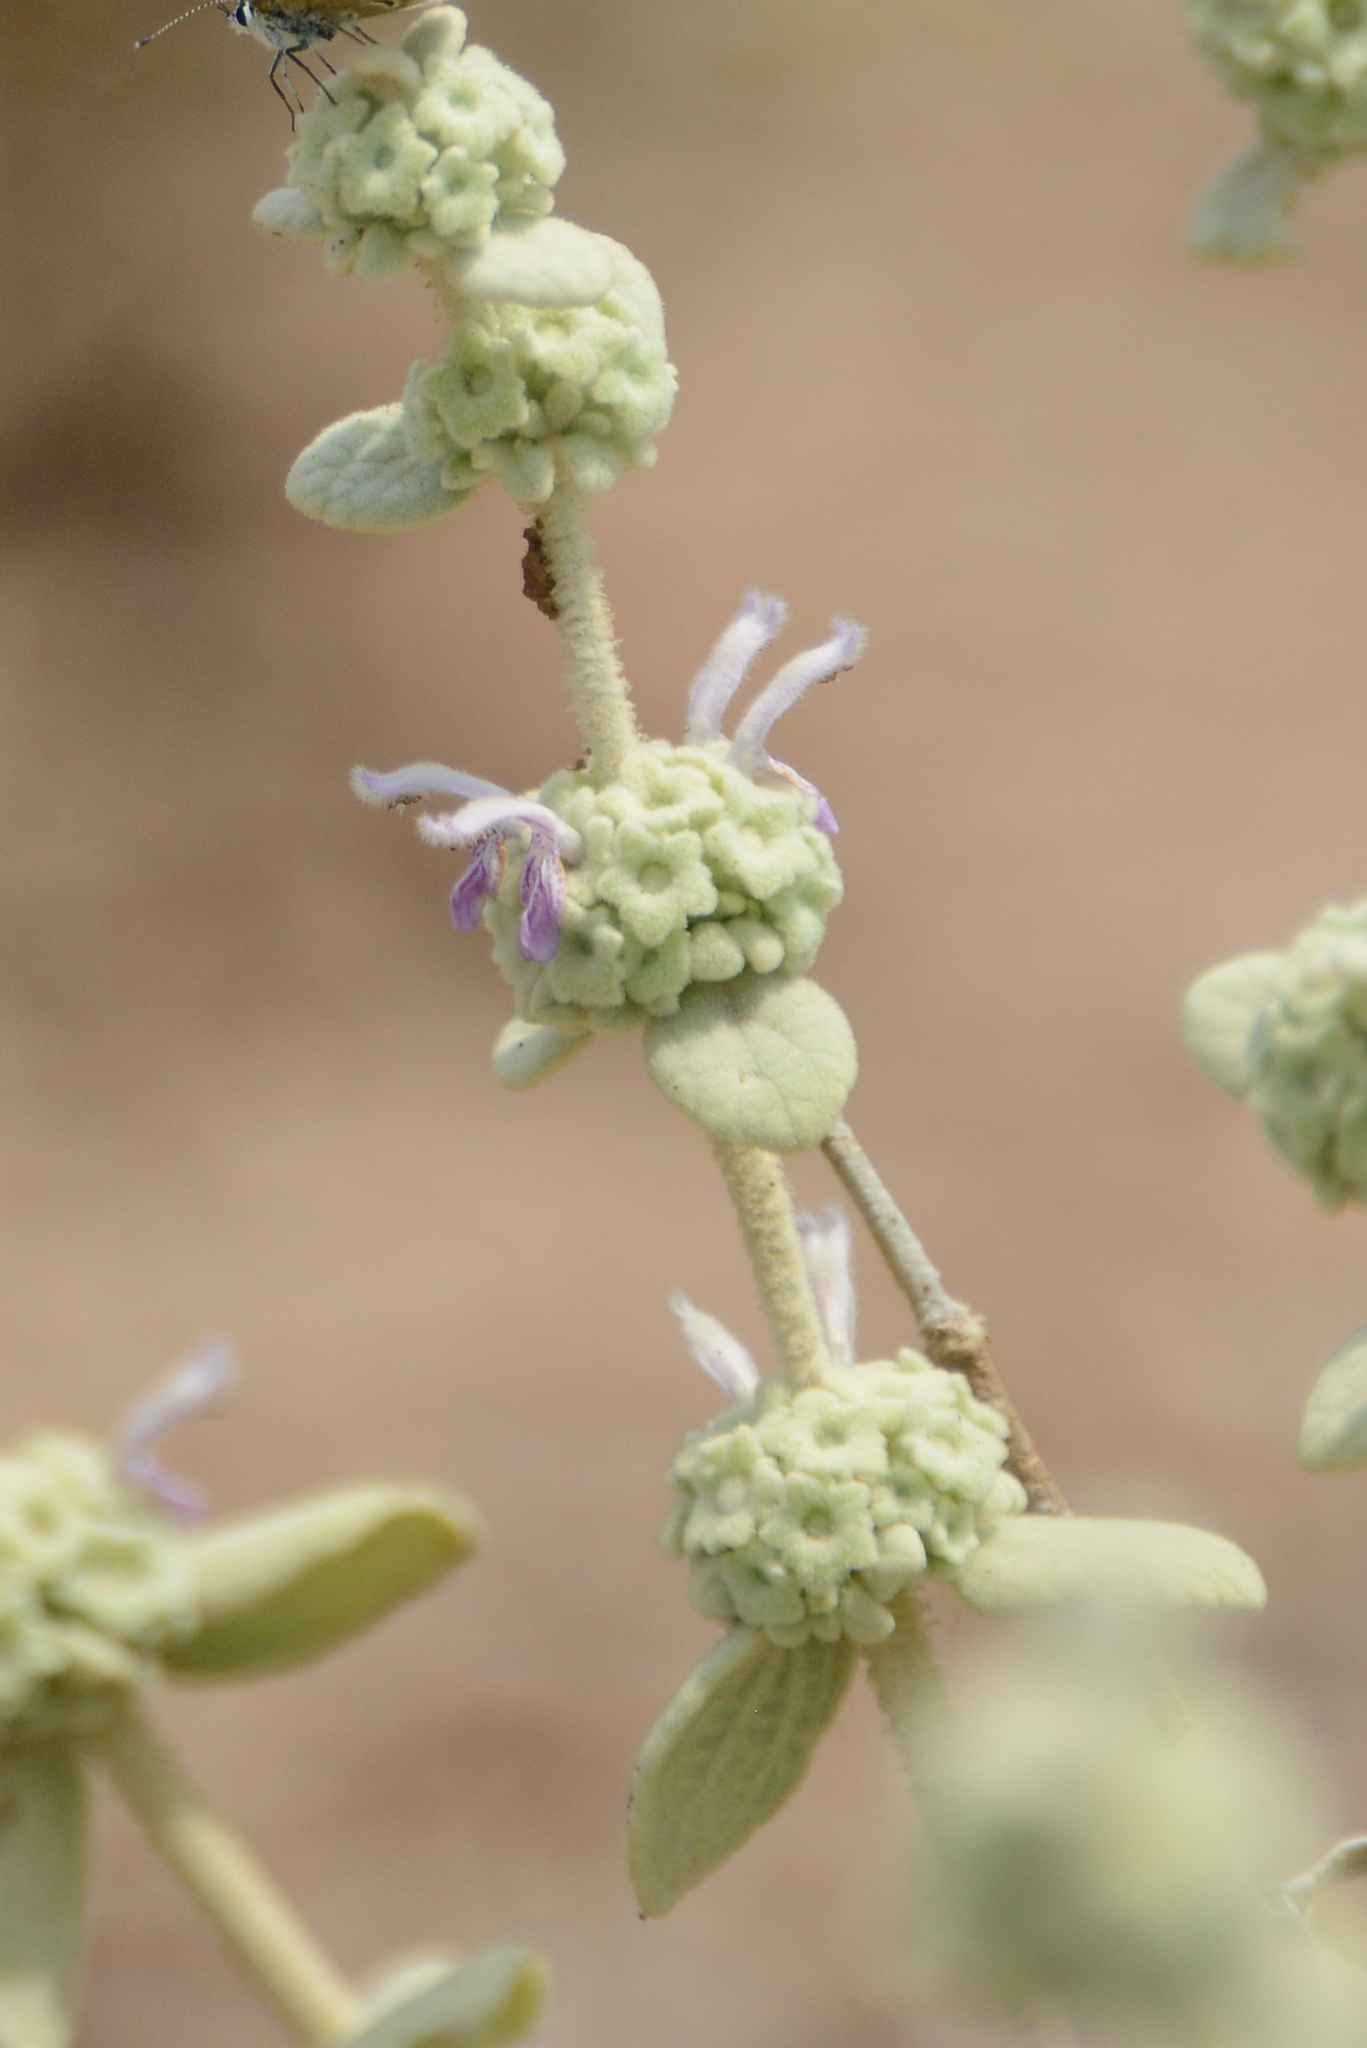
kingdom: Plantae
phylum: Tracheophyta
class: Magnoliopsida
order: Lamiales
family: Lamiaceae
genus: Pseudodictamnus
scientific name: Pseudodictamnus mediterraneus
